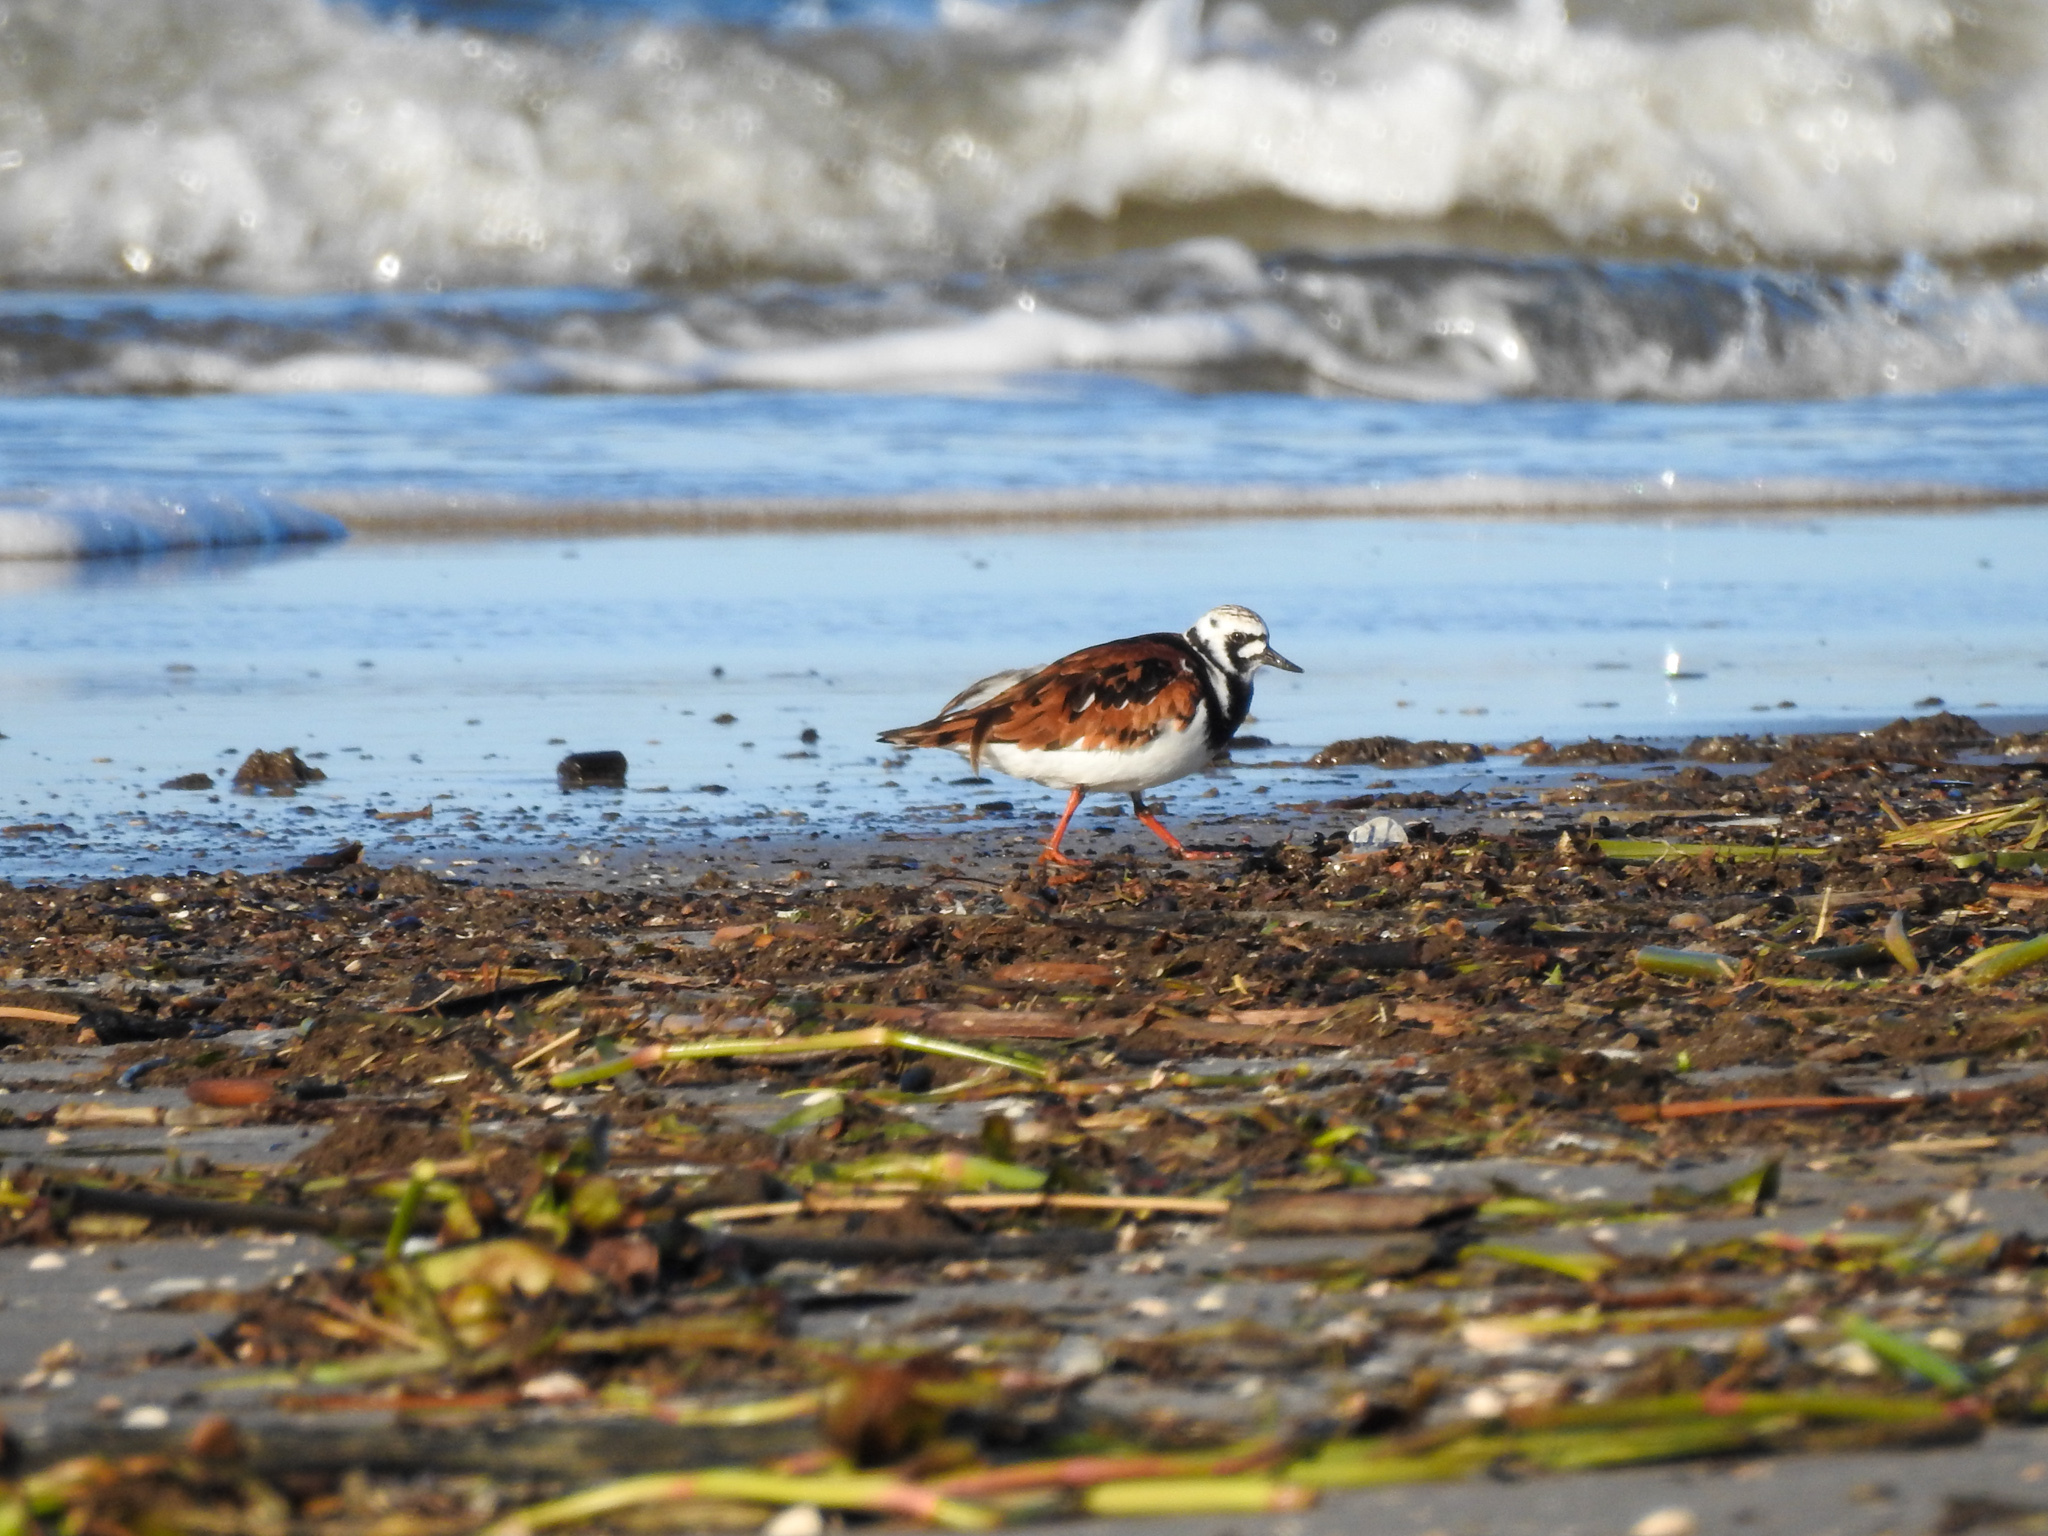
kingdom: Animalia
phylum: Chordata
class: Aves
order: Charadriiformes
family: Scolopacidae
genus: Arenaria
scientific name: Arenaria interpres
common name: Ruddy turnstone
